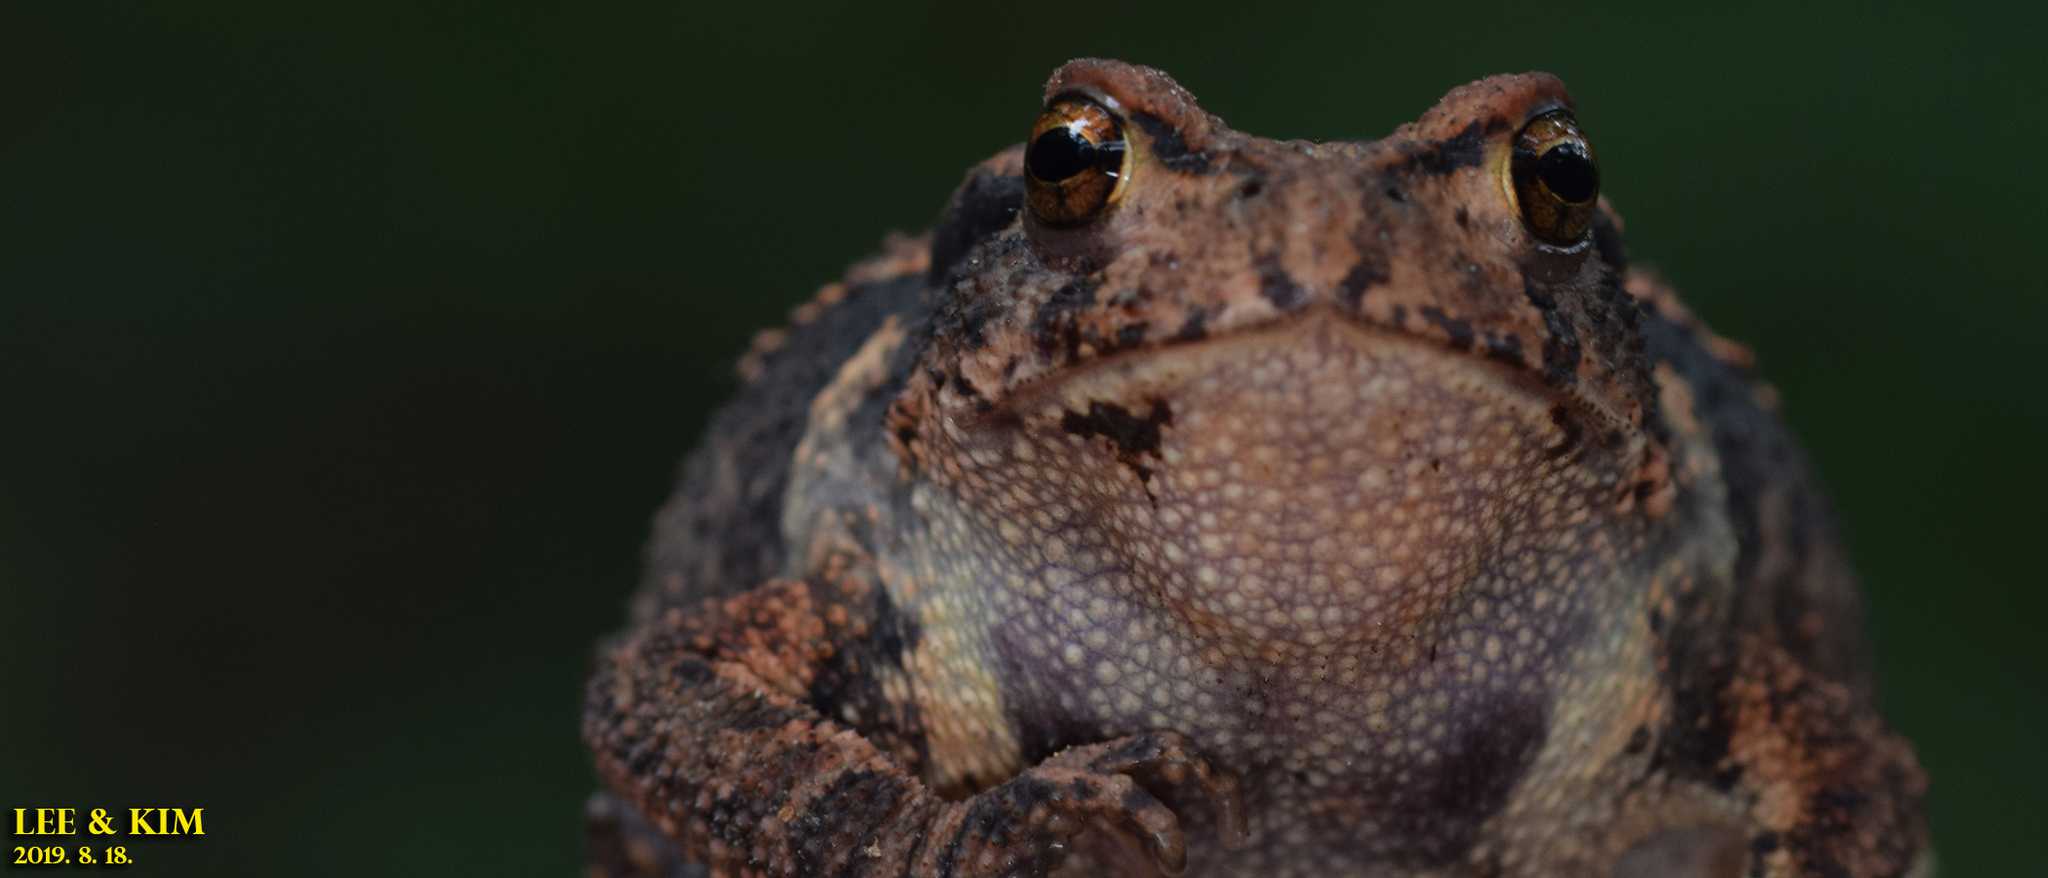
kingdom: Animalia
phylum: Chordata
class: Amphibia
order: Anura
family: Bufonidae
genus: Bufo
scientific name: Bufo gargarizans
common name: Asiatic toad
